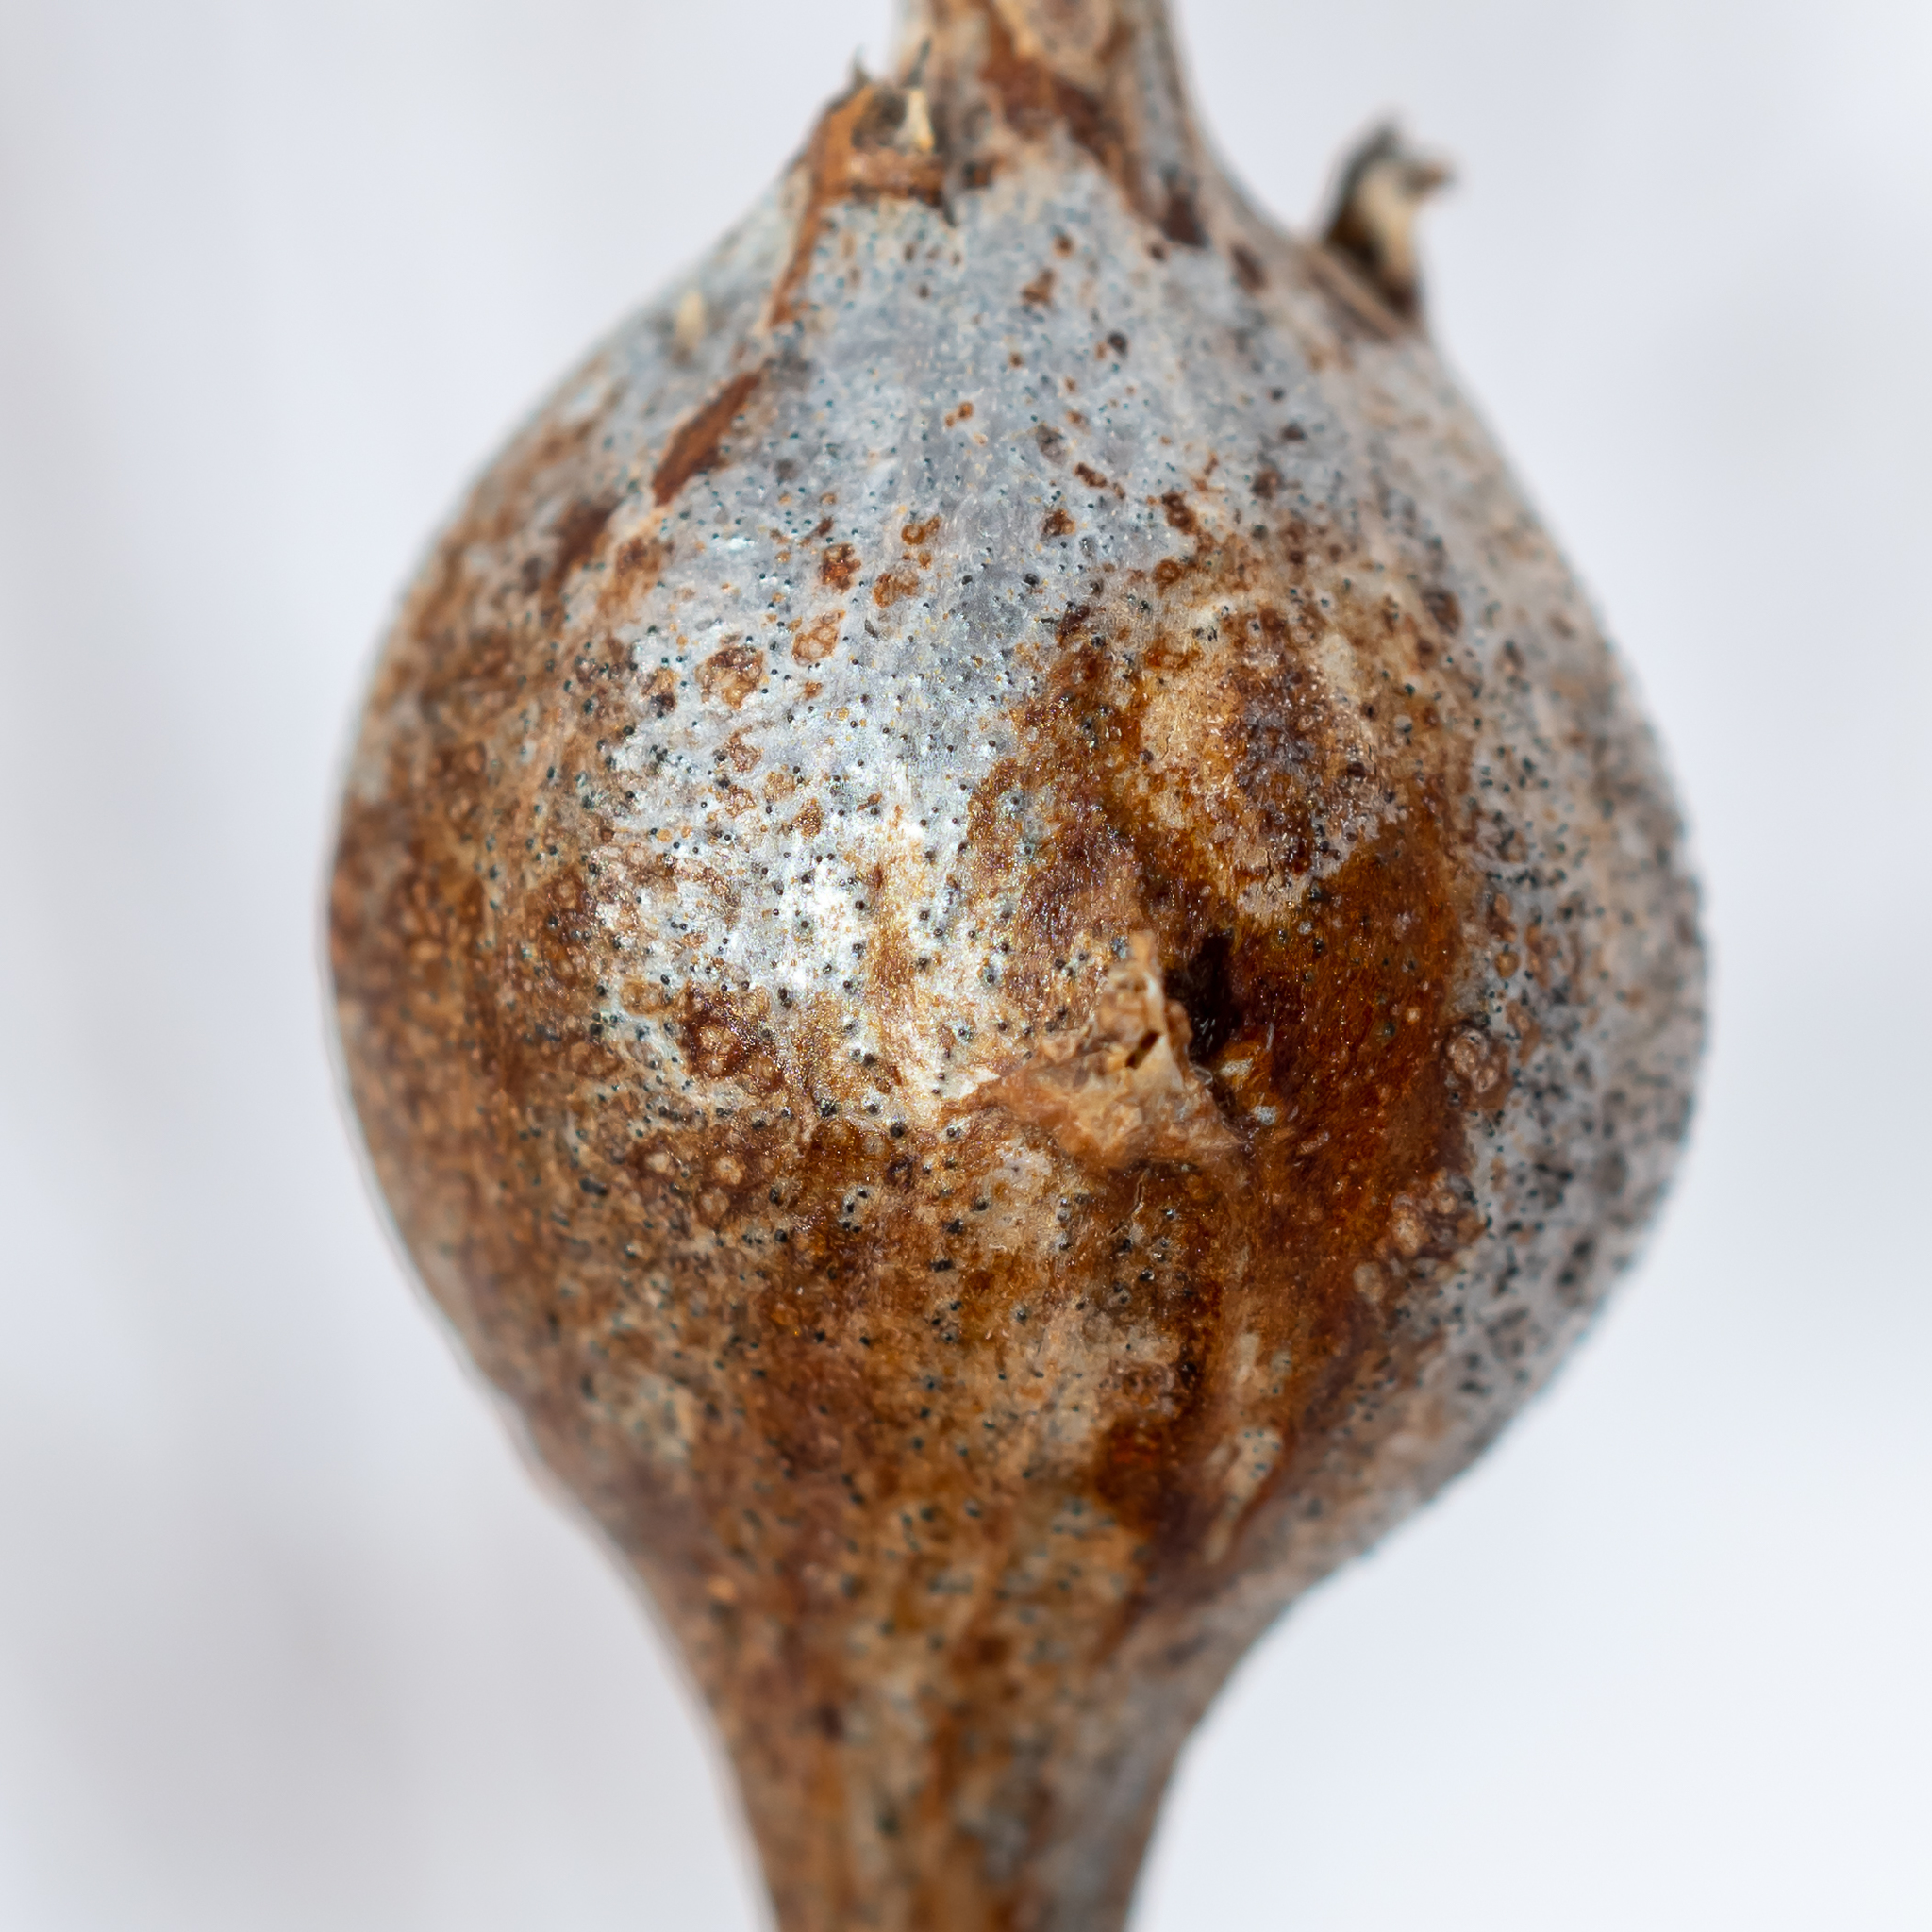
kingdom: Animalia
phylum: Arthropoda
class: Insecta
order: Diptera
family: Tephritidae
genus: Eurosta
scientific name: Eurosta solidaginis
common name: Goldenrod gall fly
